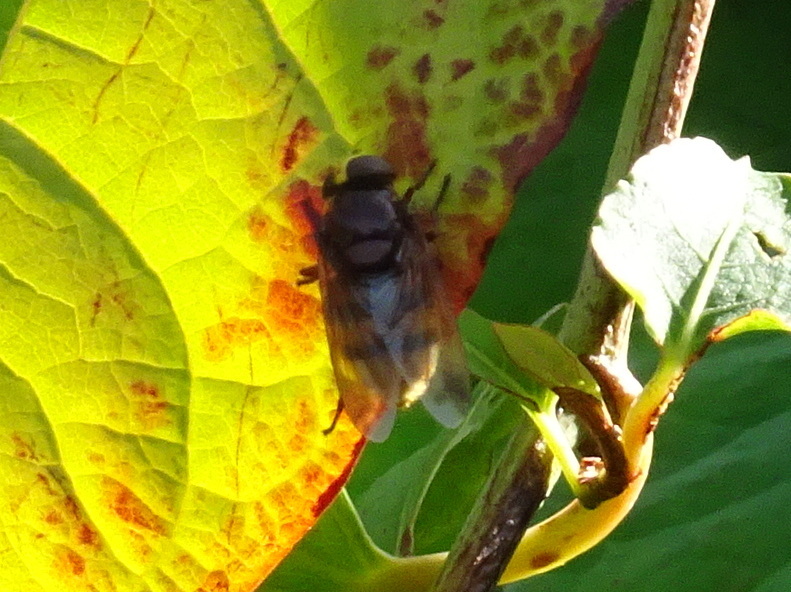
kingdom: Animalia
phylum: Arthropoda
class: Insecta
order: Diptera
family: Syrphidae
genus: Volucella
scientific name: Volucella zonaria
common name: Hornet hoverfly
